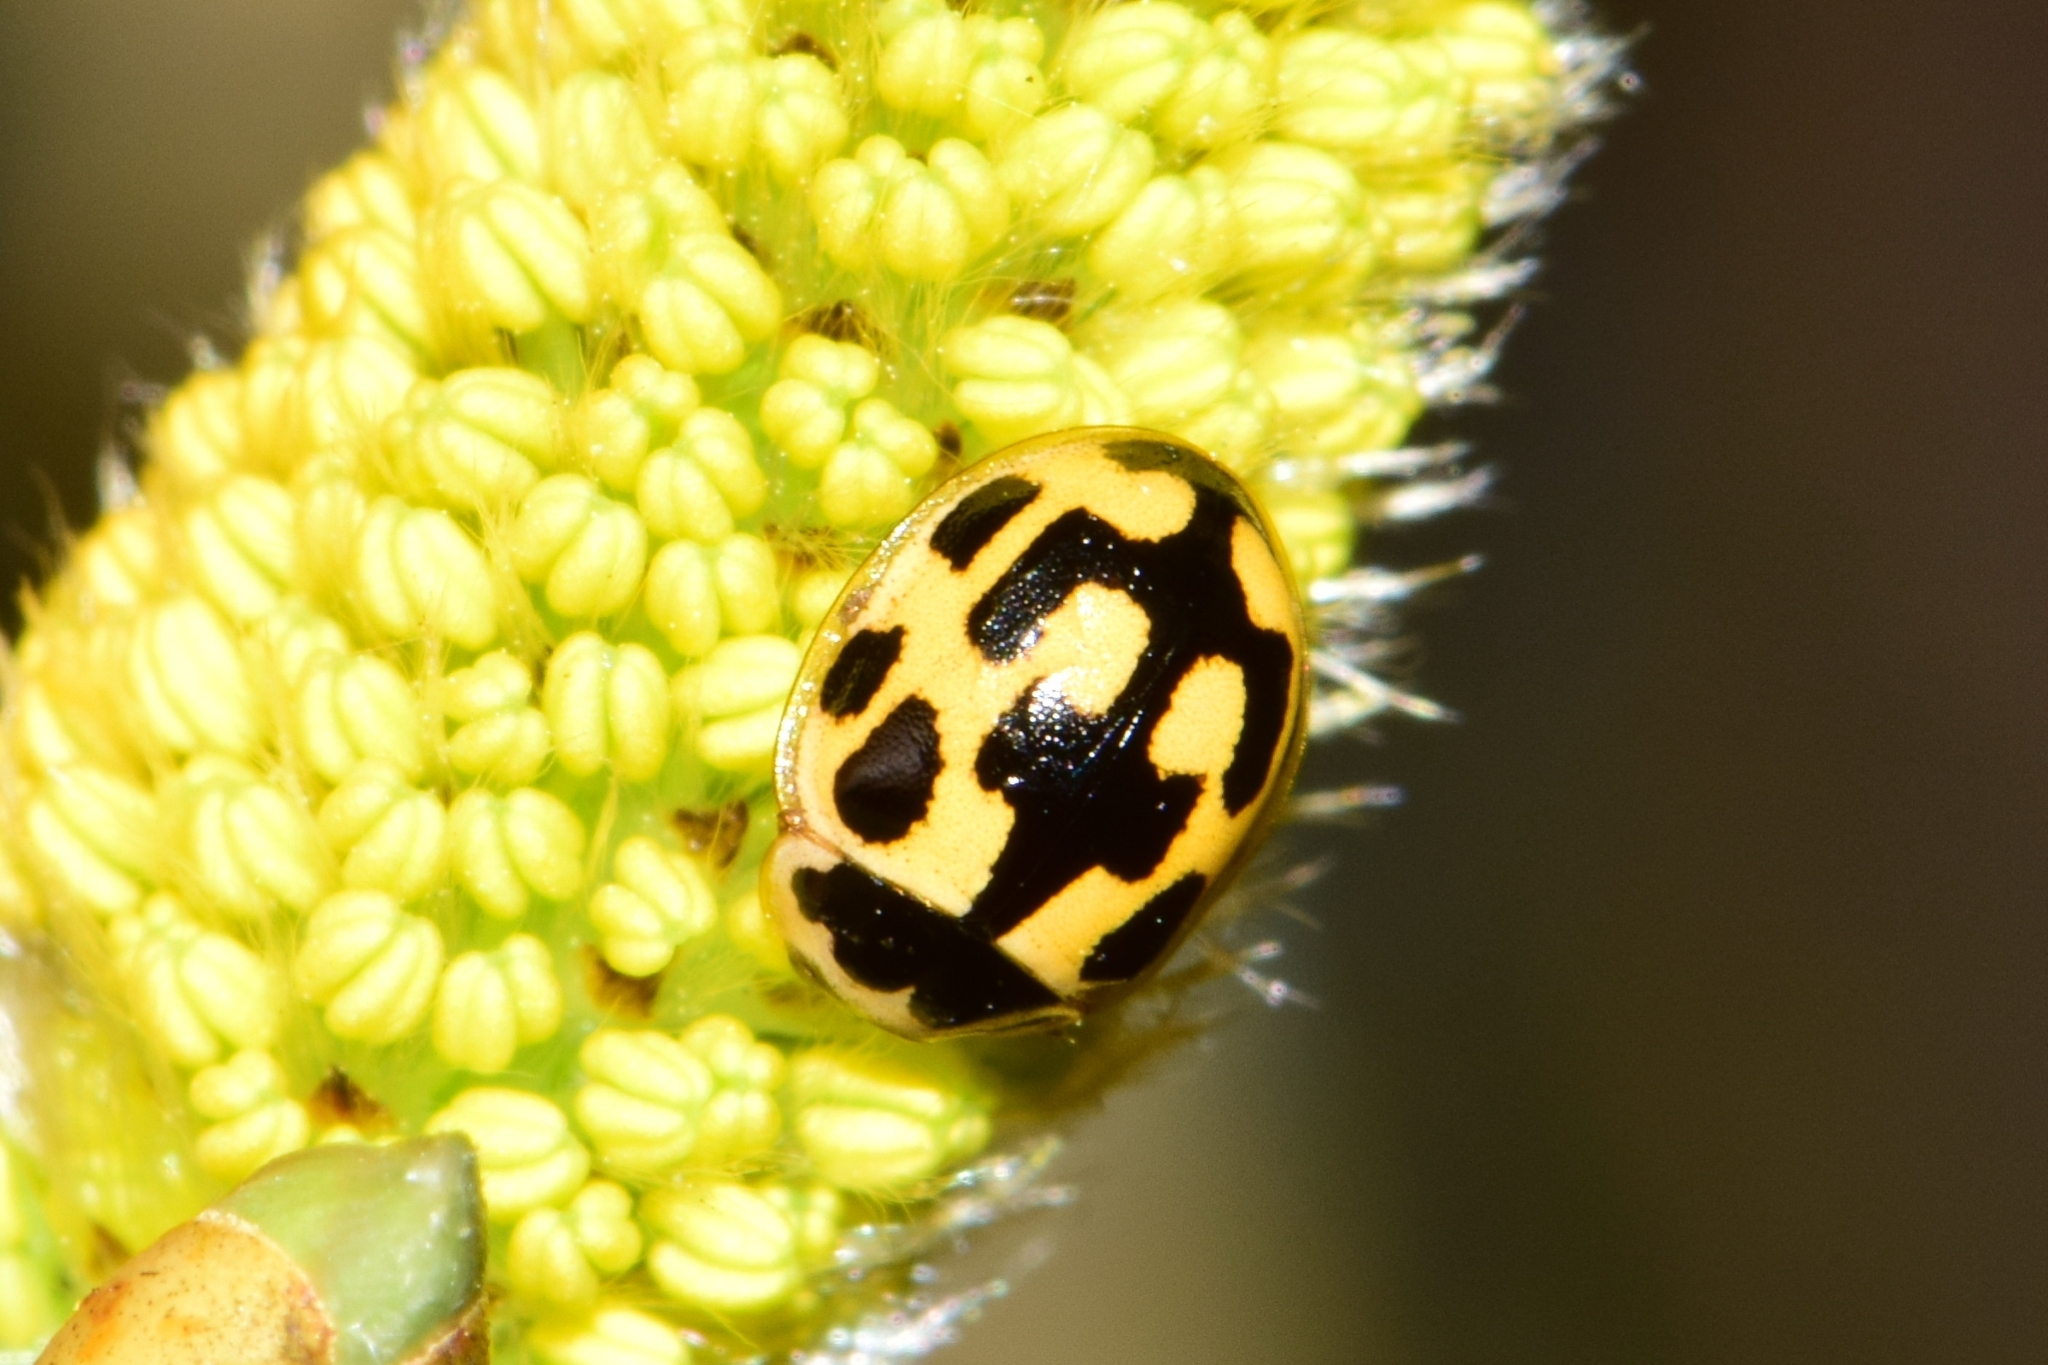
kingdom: Animalia
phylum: Arthropoda
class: Insecta
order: Coleoptera
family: Coccinellidae
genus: Propylaea
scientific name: Propylaea quatuordecimpunctata
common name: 14-spotted ladybird beetle
